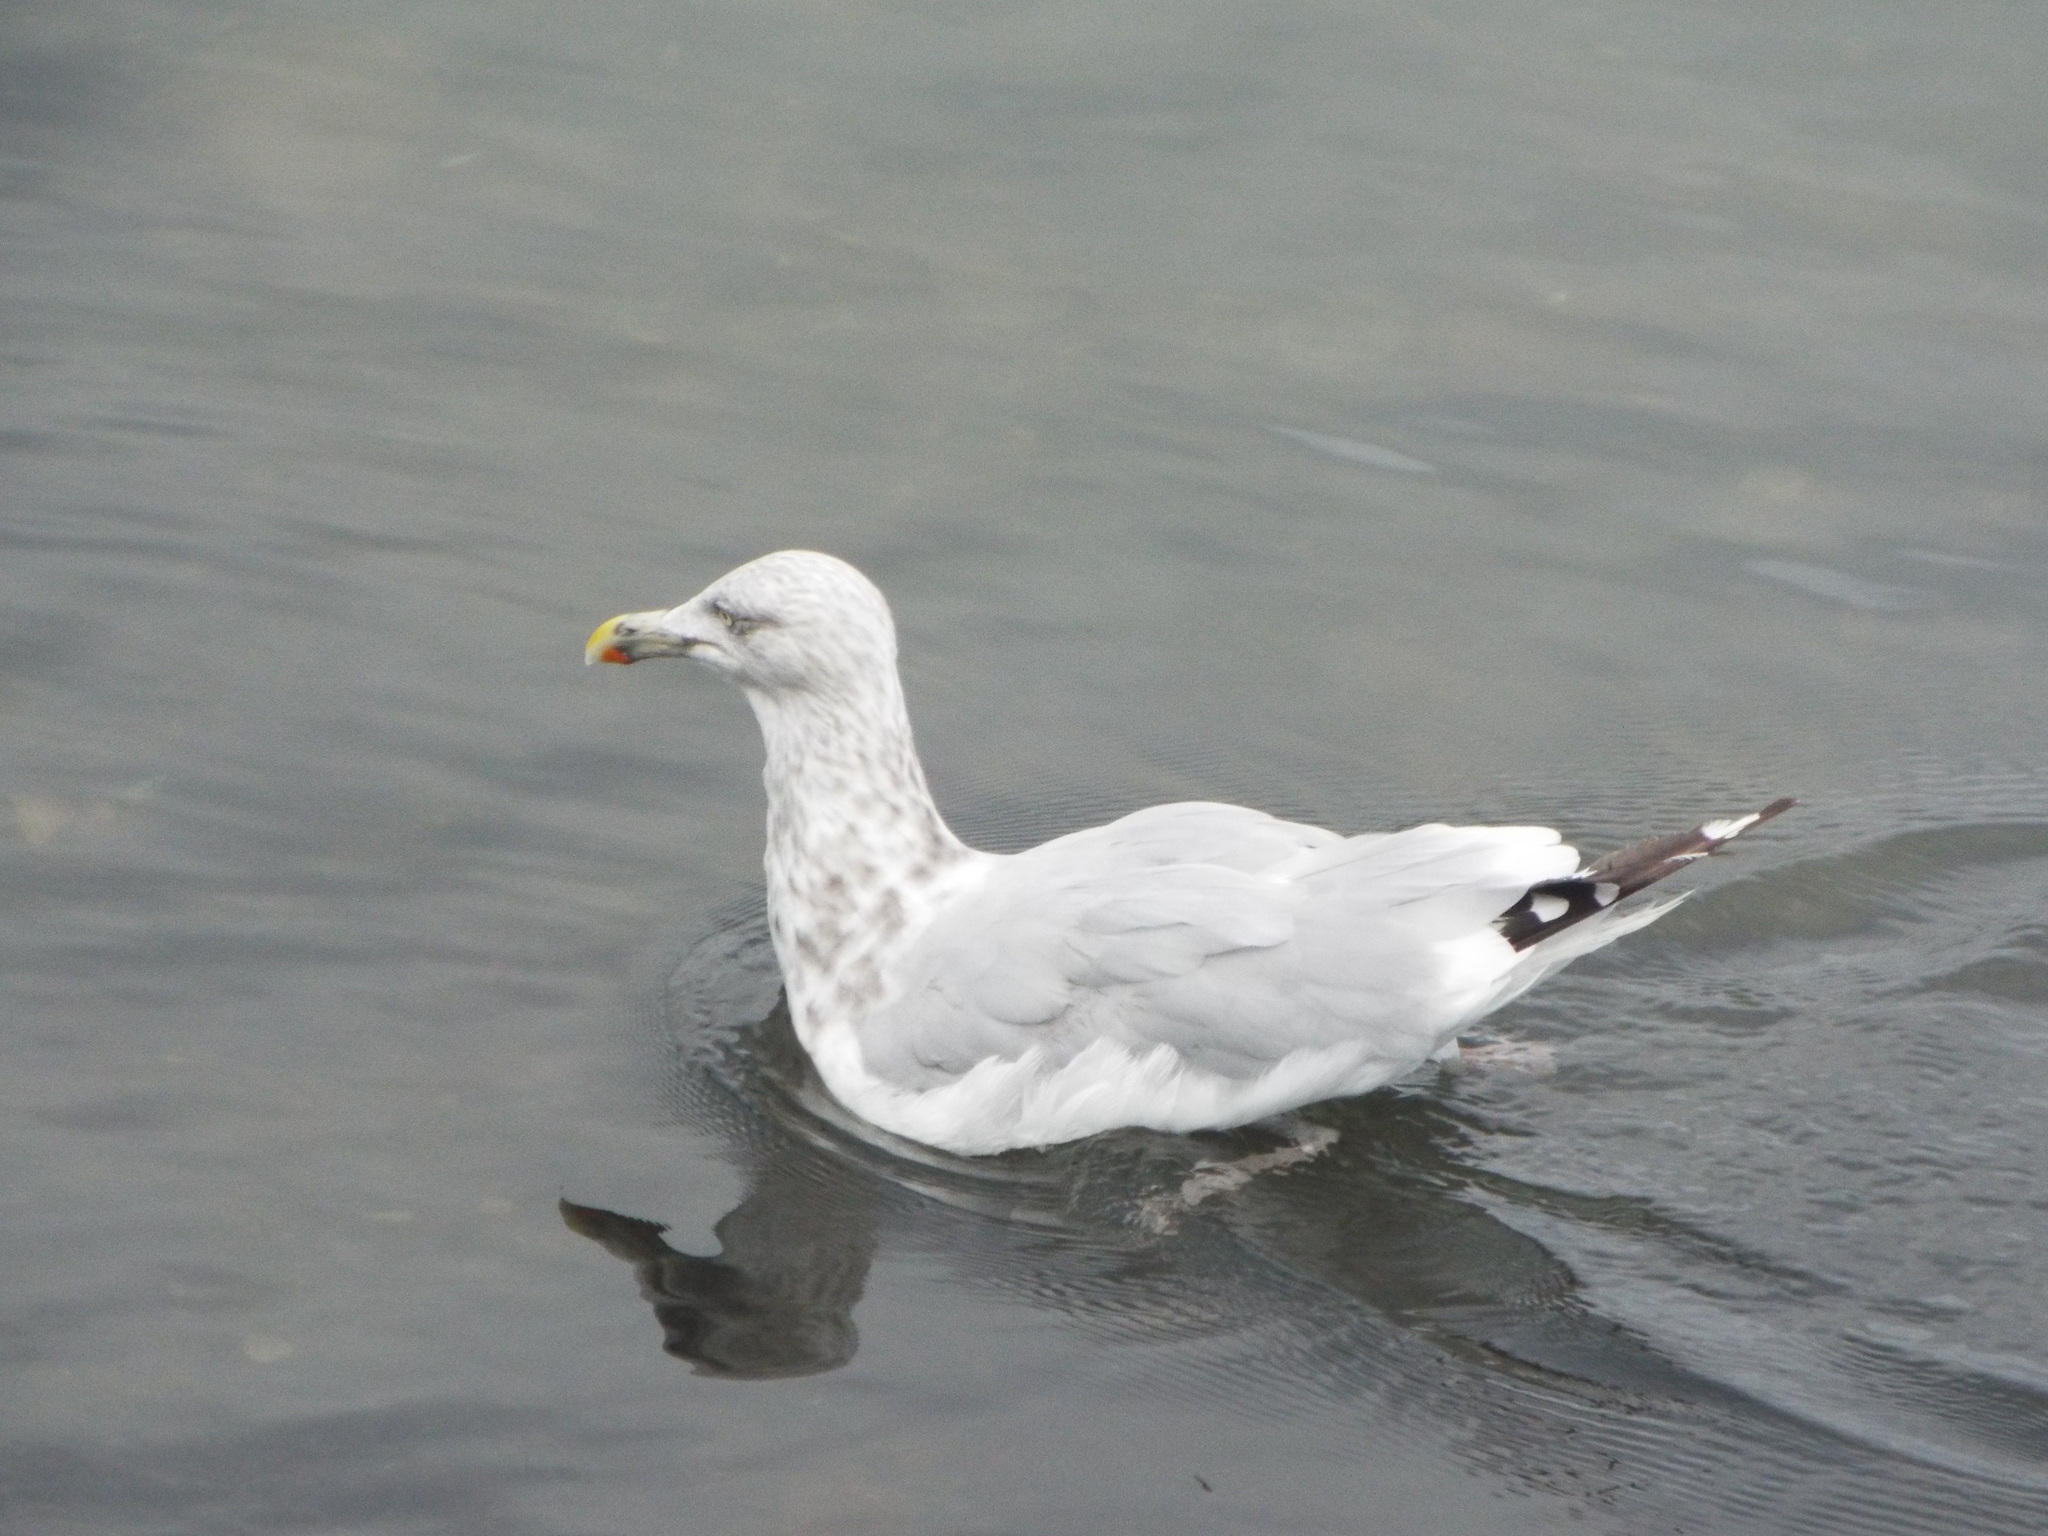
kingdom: Animalia
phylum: Chordata
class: Aves
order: Charadriiformes
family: Laridae
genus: Larus
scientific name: Larus argentatus
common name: Herring gull
